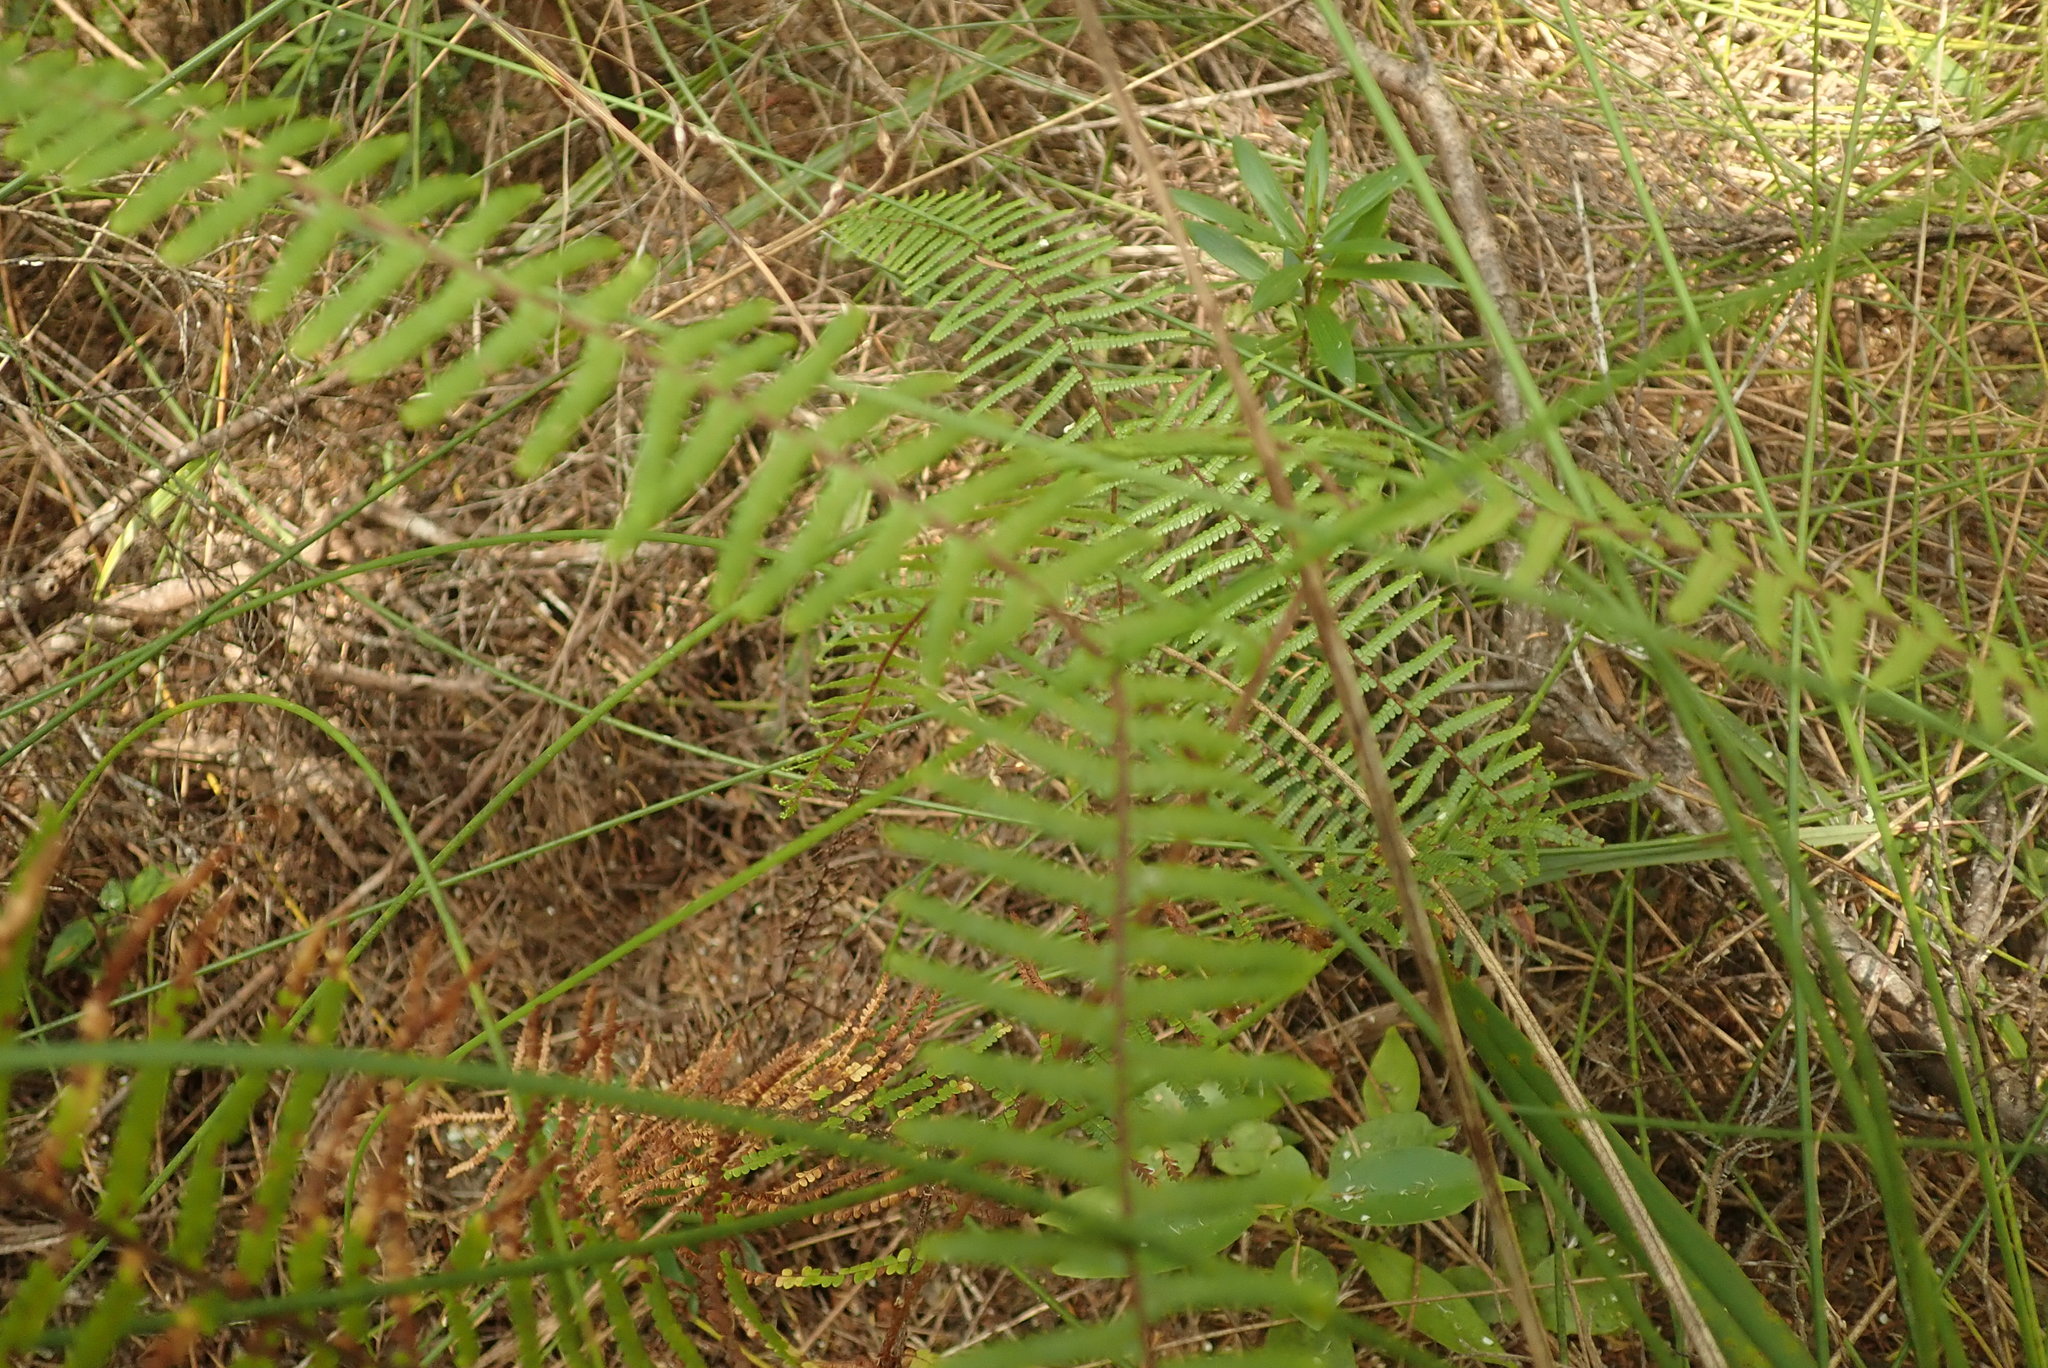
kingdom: Plantae
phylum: Tracheophyta
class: Polypodiopsida
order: Gleicheniales
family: Gleicheniaceae
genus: Gleichenia
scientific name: Gleichenia microphylla
